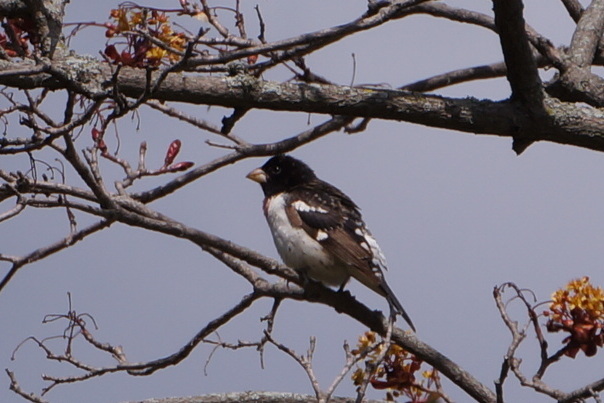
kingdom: Animalia
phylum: Chordata
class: Aves
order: Passeriformes
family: Cardinalidae
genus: Pheucticus
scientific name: Pheucticus ludovicianus
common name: Rose-breasted grosbeak
